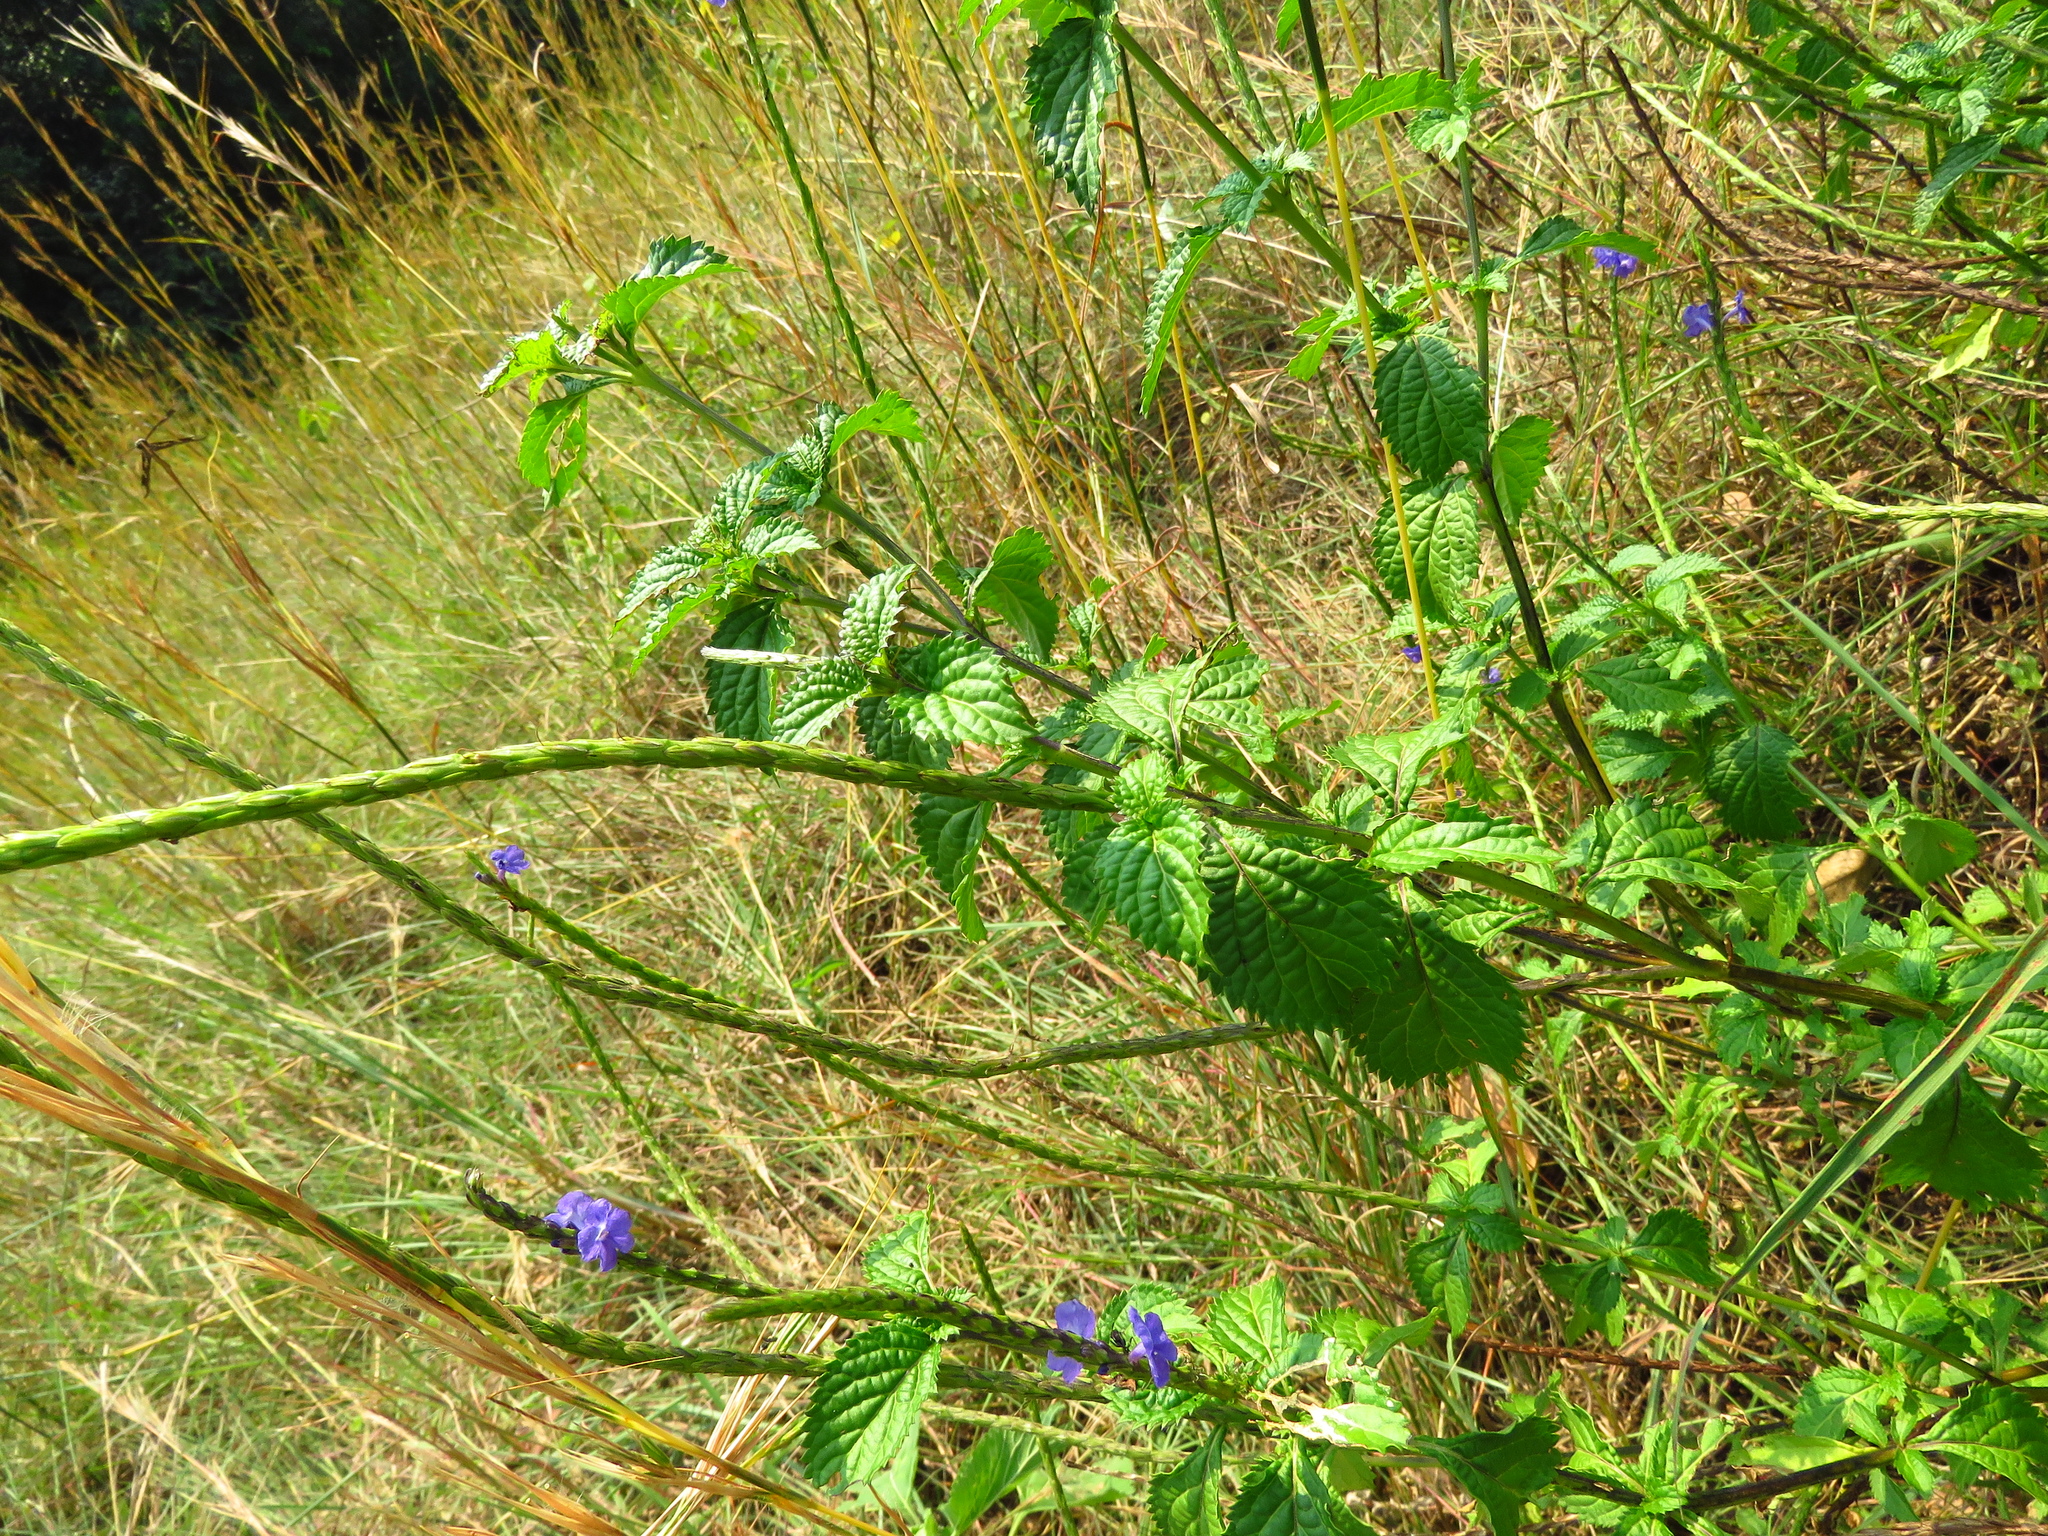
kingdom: Plantae
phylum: Tracheophyta
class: Magnoliopsida
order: Lamiales
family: Verbenaceae
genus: Stachytarpheta
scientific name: Stachytarpheta jamaicensis
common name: Light-blue snakeweed
